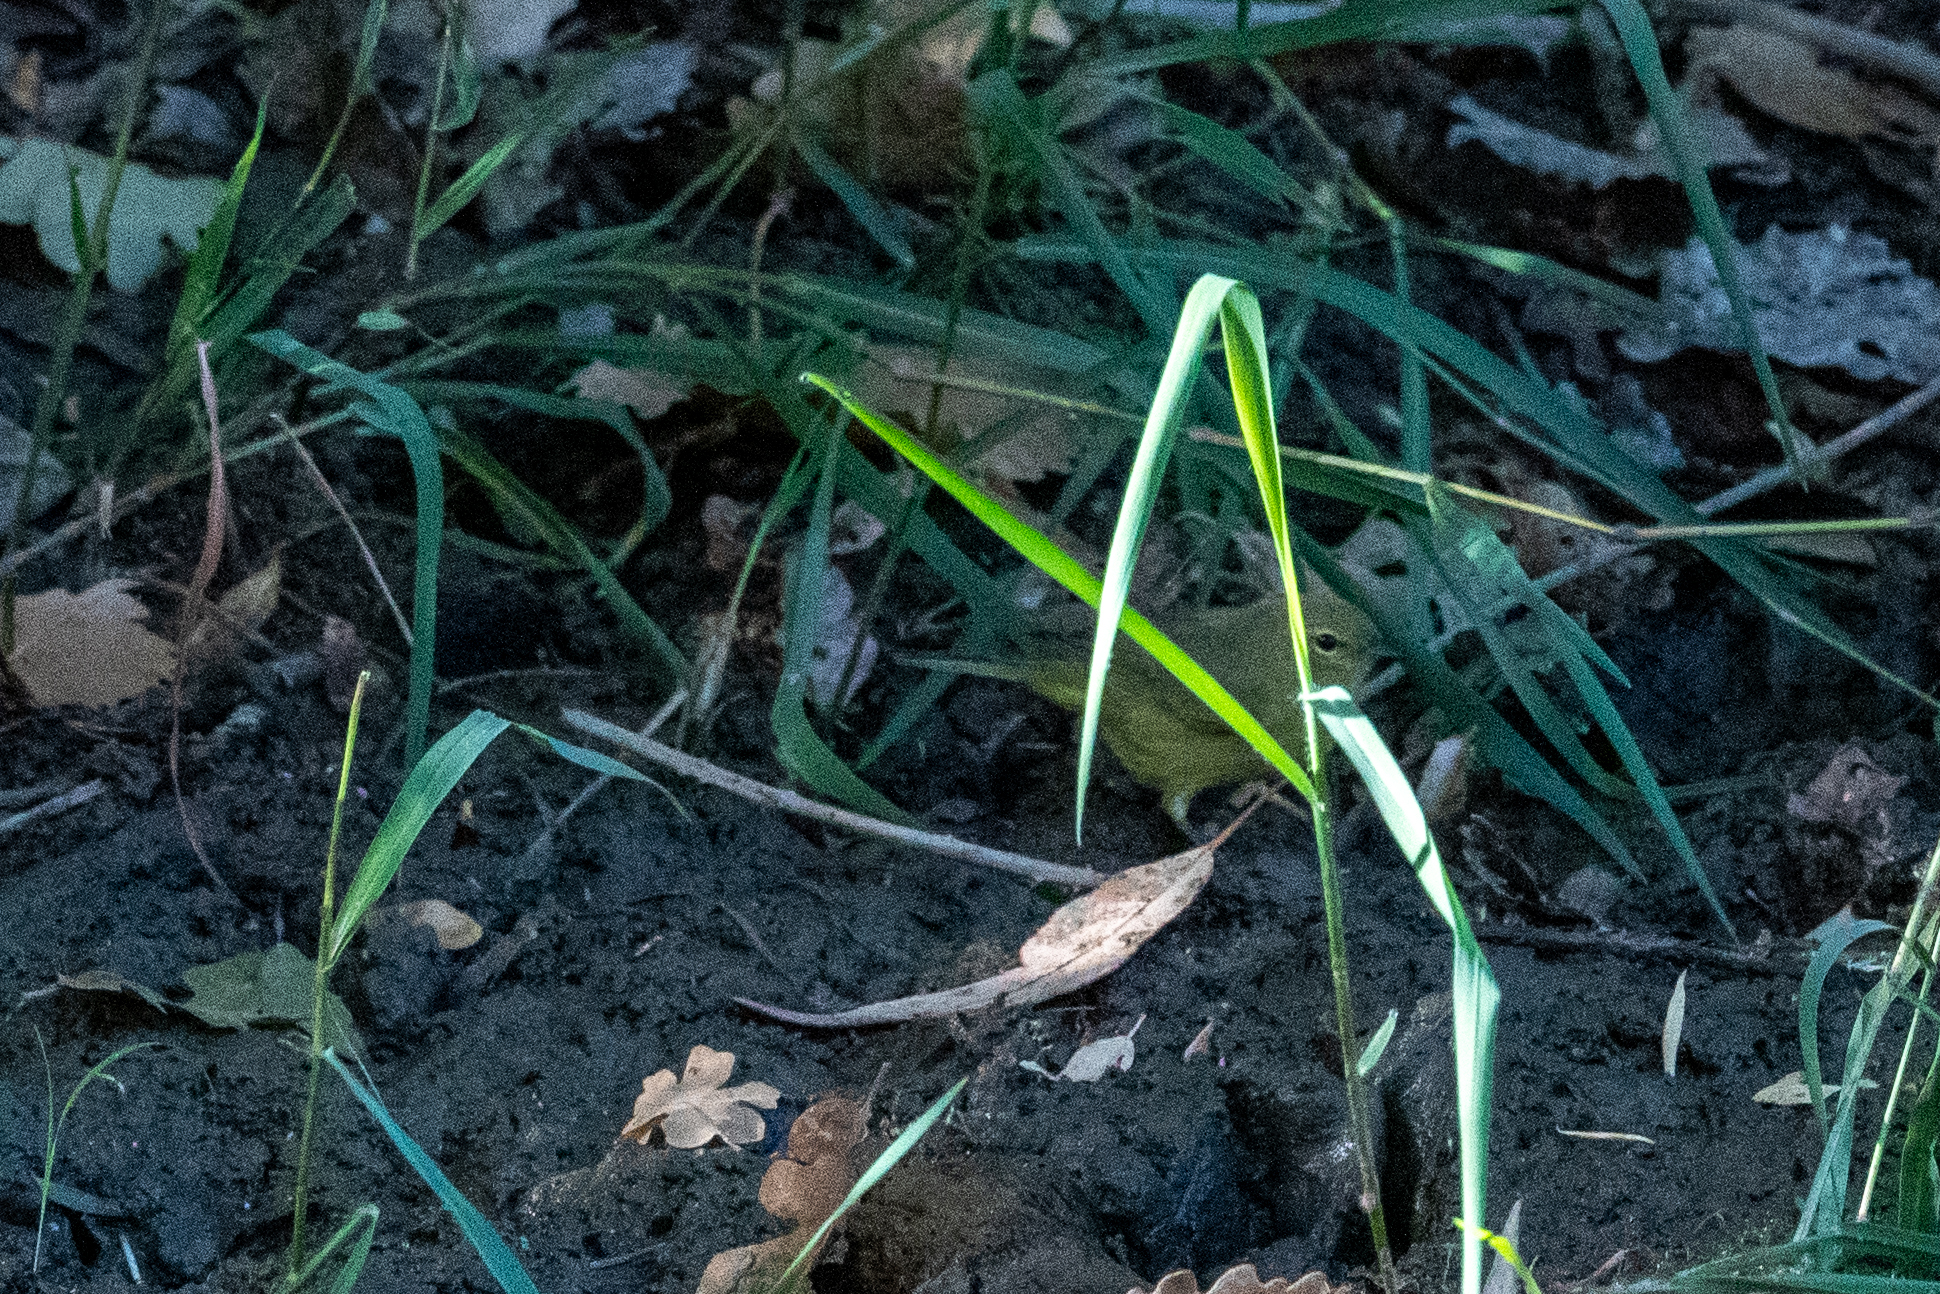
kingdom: Animalia
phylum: Chordata
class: Aves
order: Passeriformes
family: Parulidae
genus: Leiothlypis
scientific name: Leiothlypis celata
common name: Orange-crowned warbler
